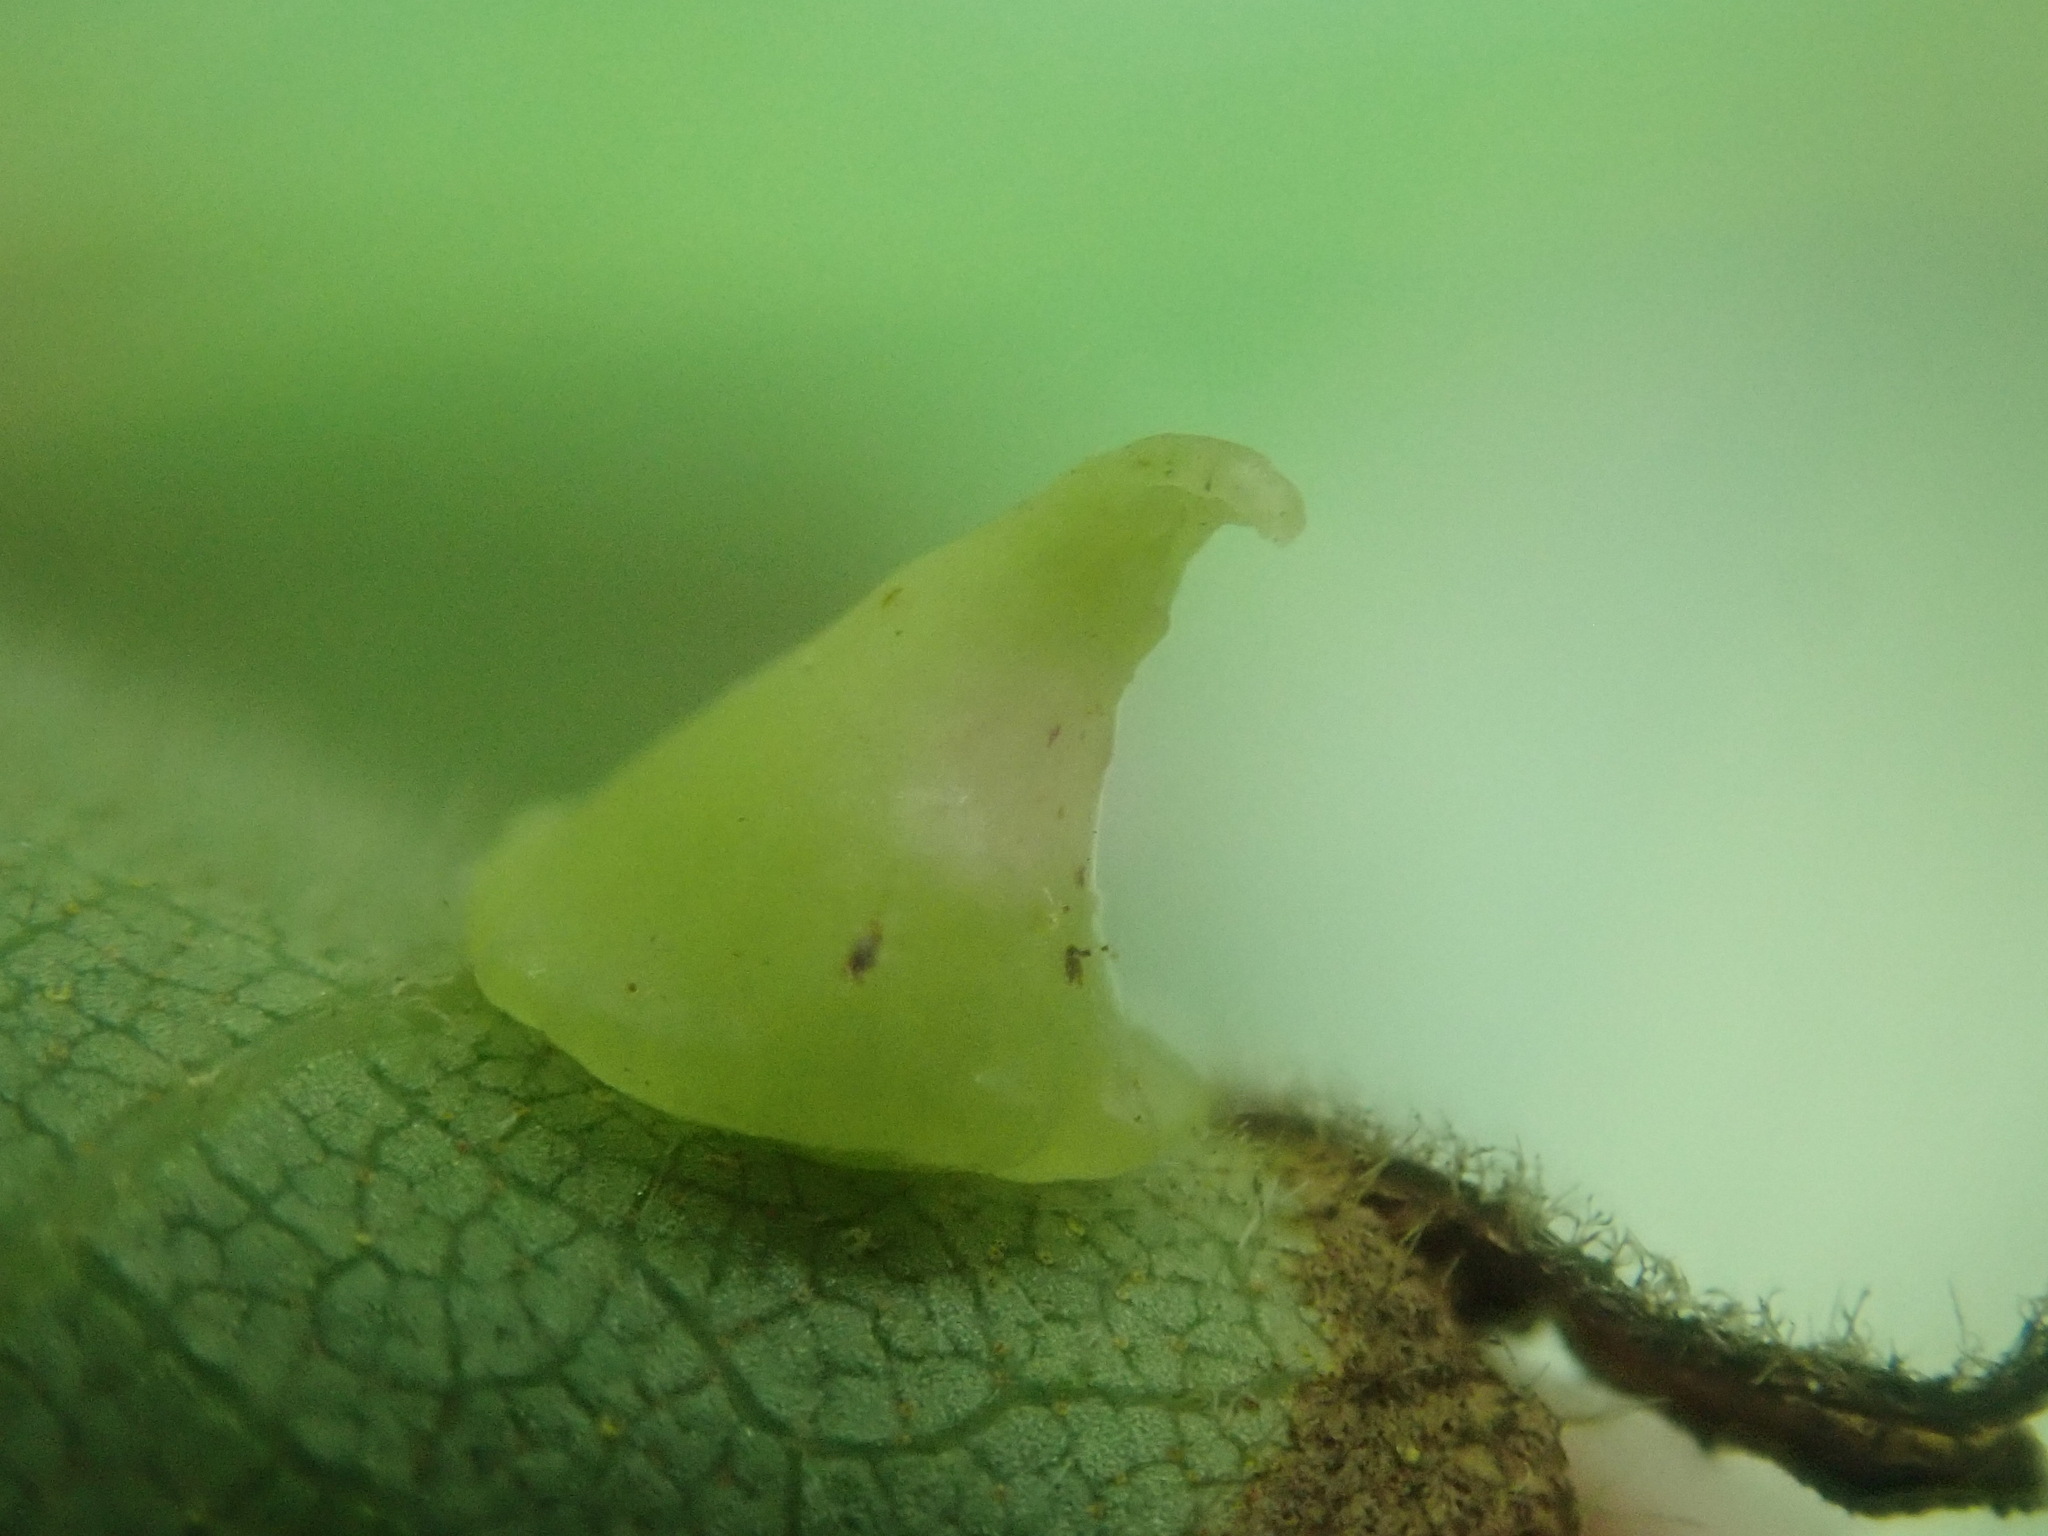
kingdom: Animalia
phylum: Arthropoda
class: Insecta
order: Diptera
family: Cecidomyiidae
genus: Caryomyia
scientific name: Caryomyia sanguinolenta
